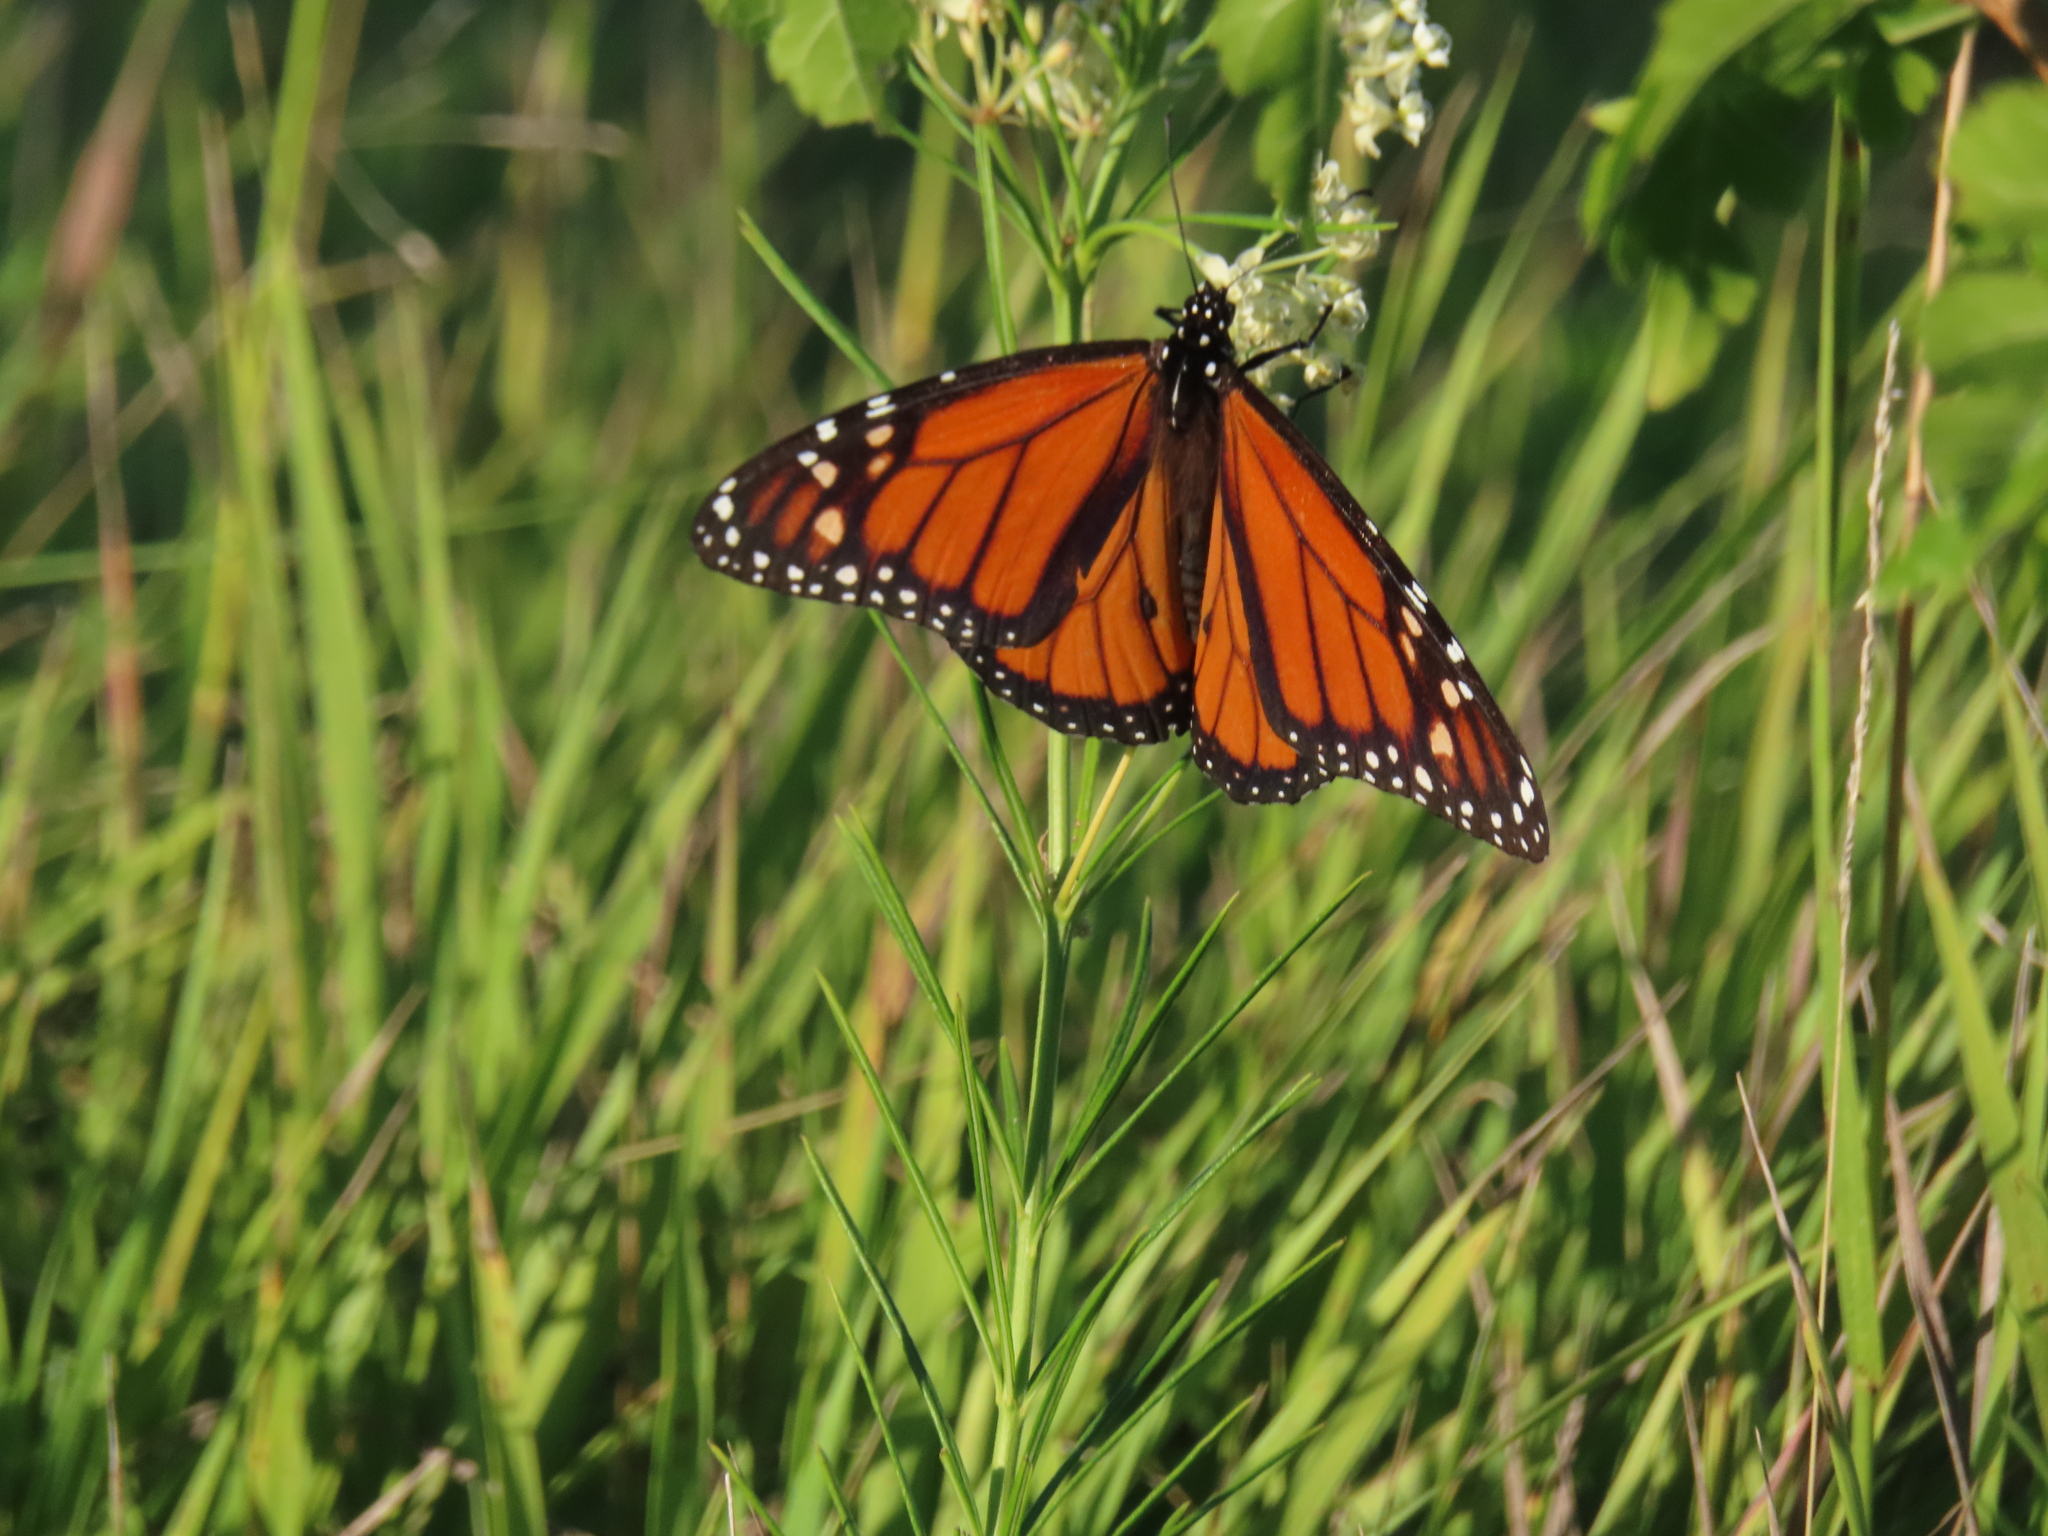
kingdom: Animalia
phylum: Arthropoda
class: Insecta
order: Lepidoptera
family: Nymphalidae
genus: Danaus
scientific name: Danaus plexippus
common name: Monarch
